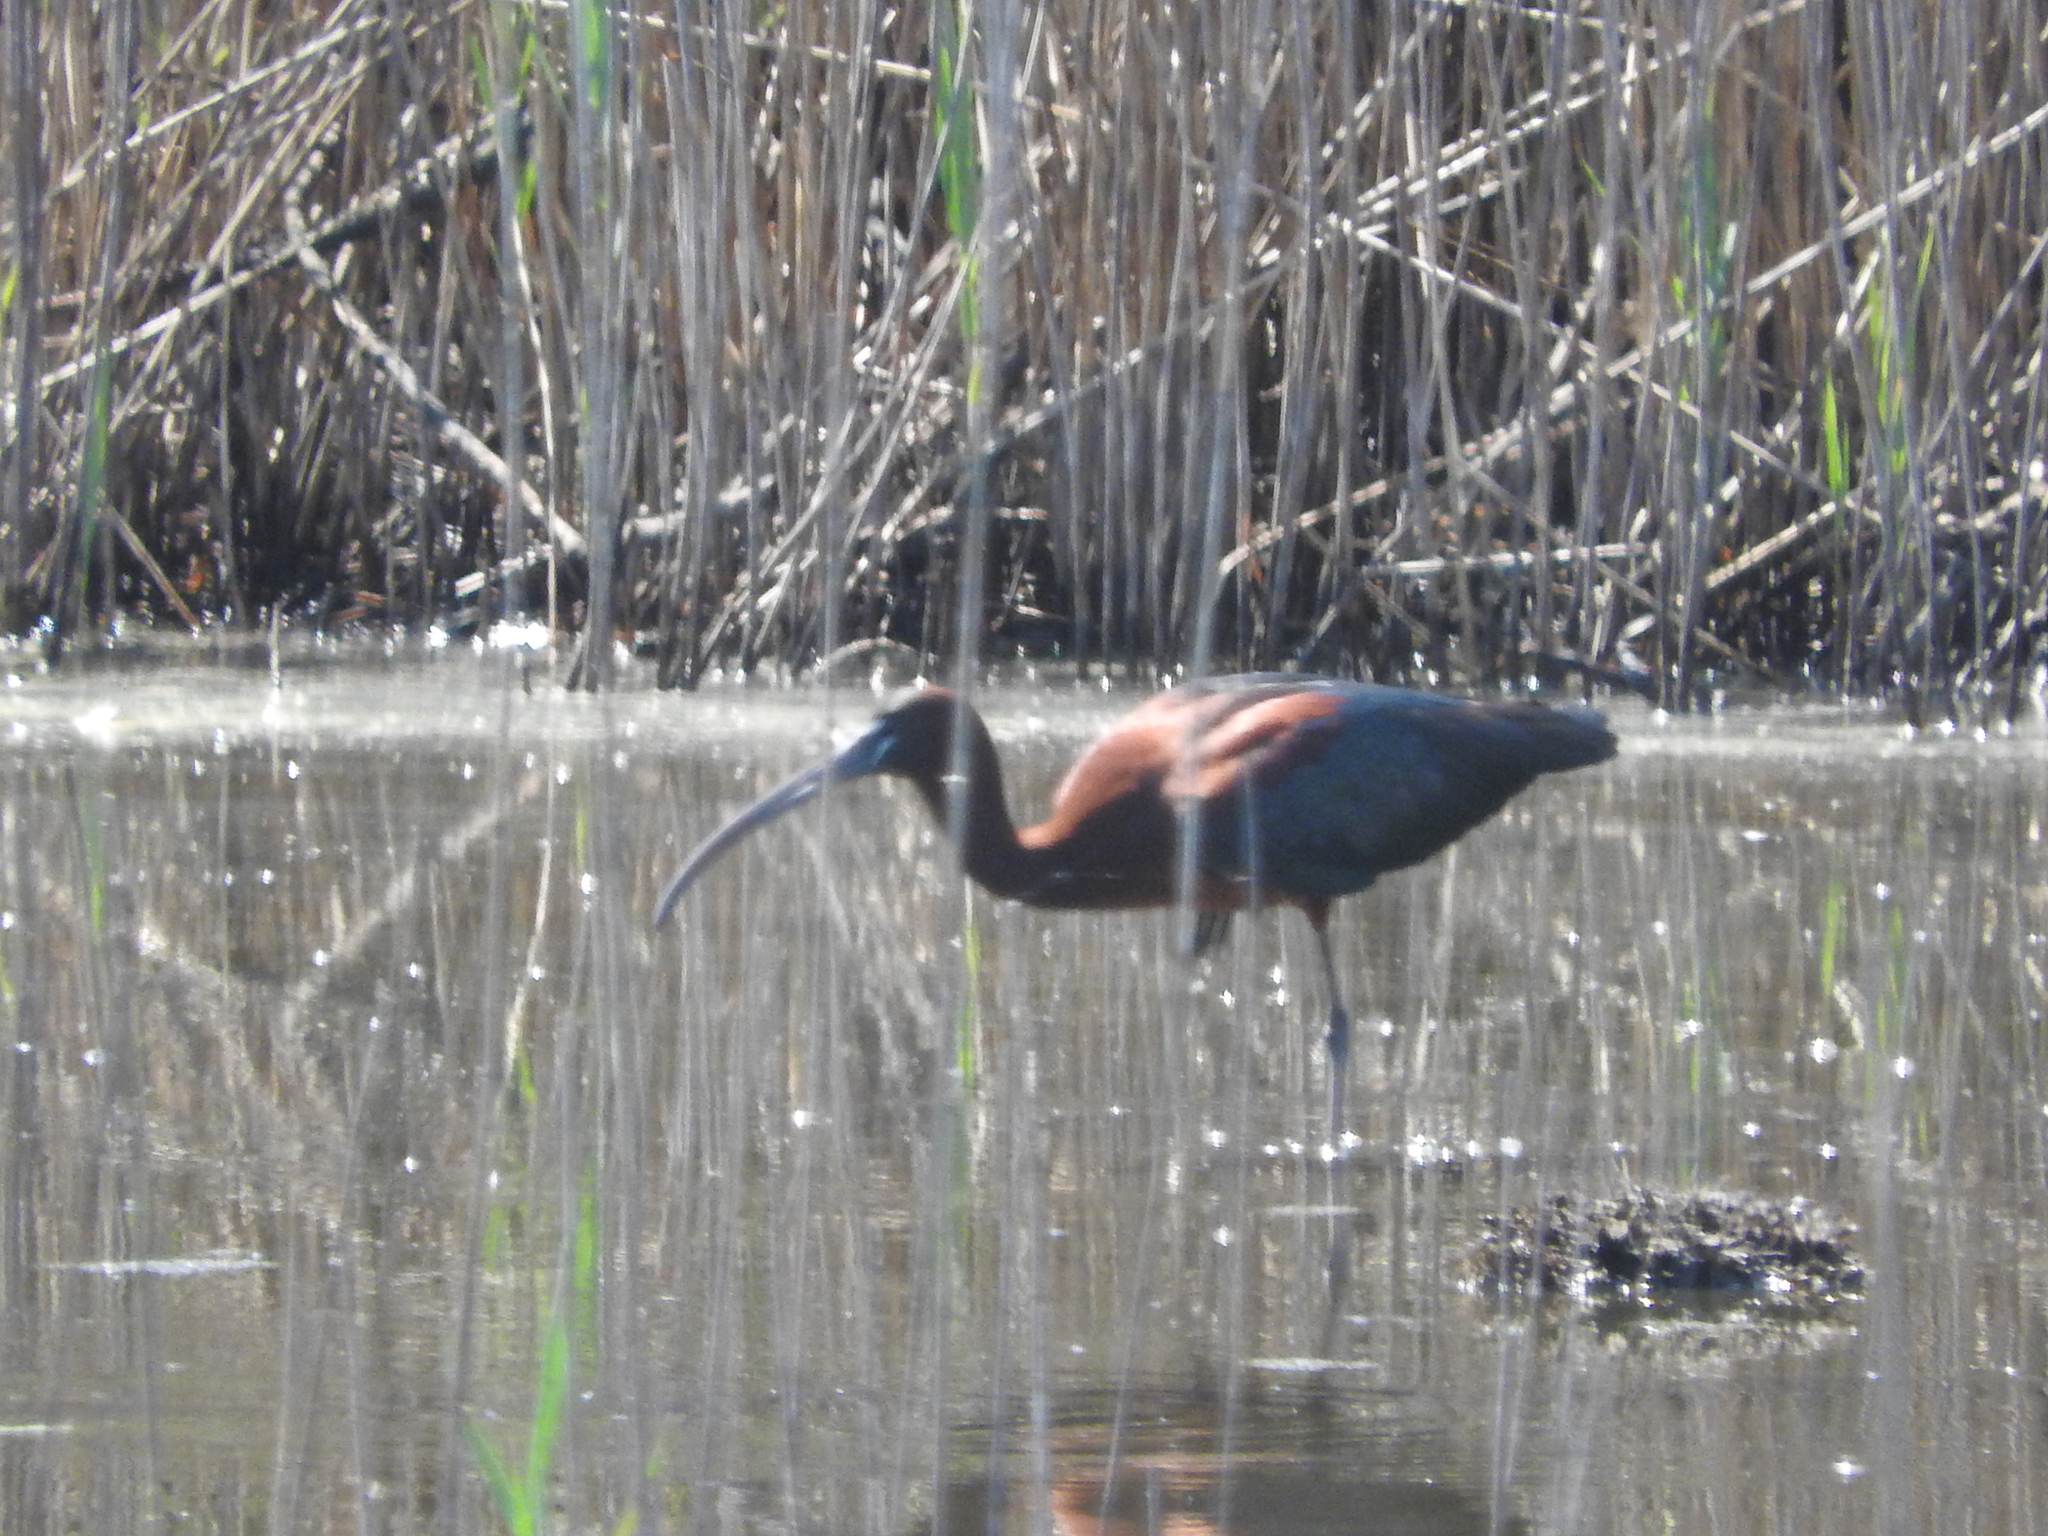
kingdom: Animalia
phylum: Chordata
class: Aves
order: Pelecaniformes
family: Threskiornithidae
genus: Plegadis
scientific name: Plegadis falcinellus
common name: Glossy ibis
